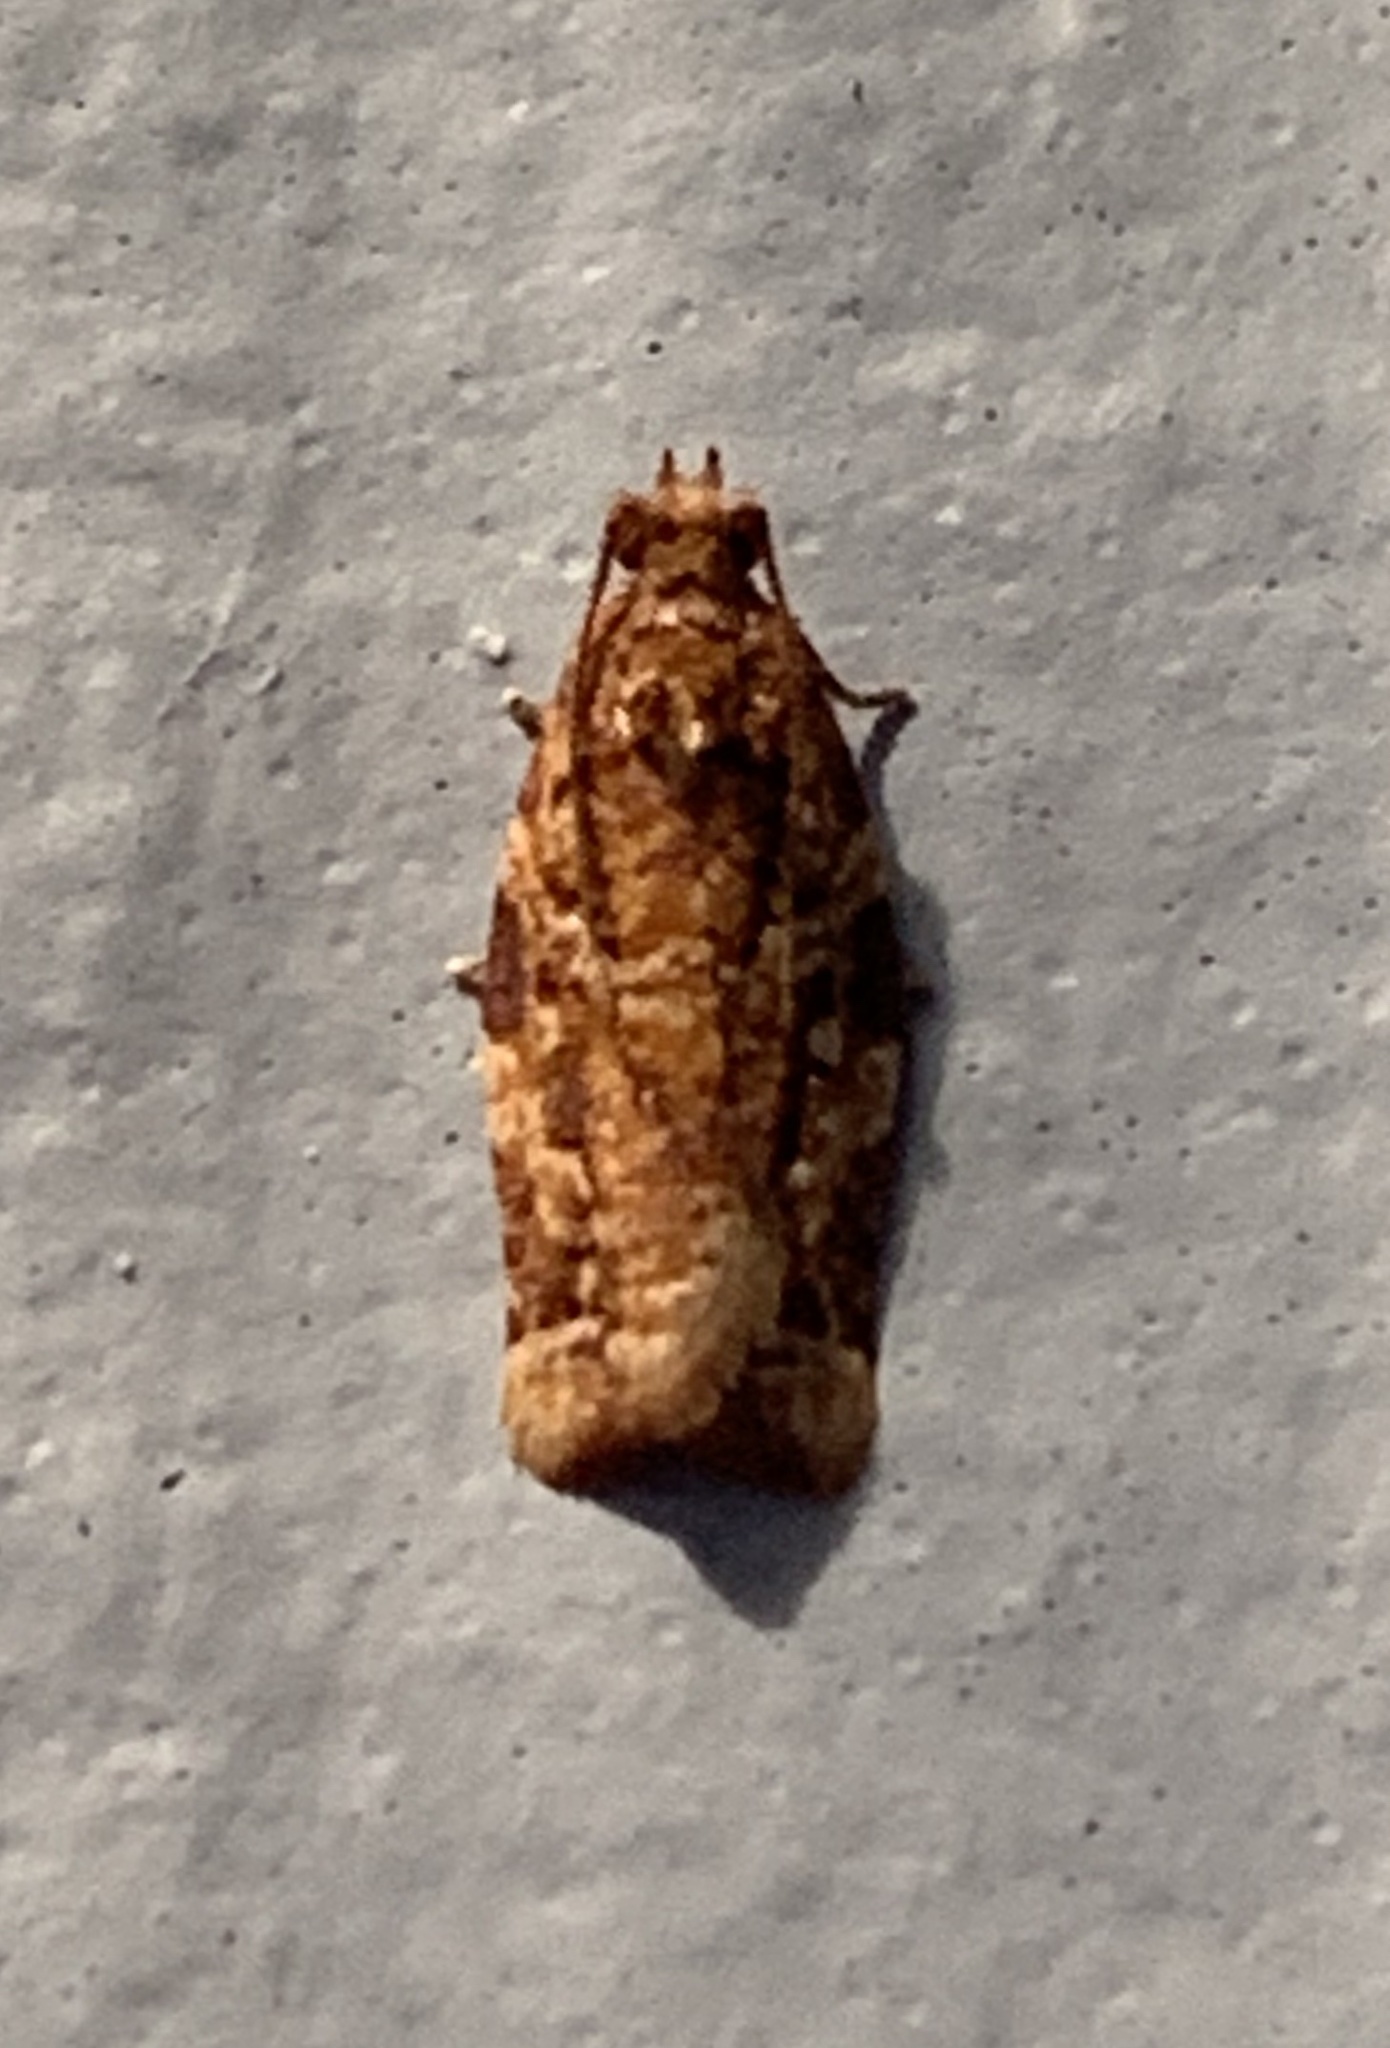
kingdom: Animalia
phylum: Arthropoda
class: Insecta
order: Lepidoptera
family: Tortricidae
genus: Argyrotaenia
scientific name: Argyrotaenia amatana
